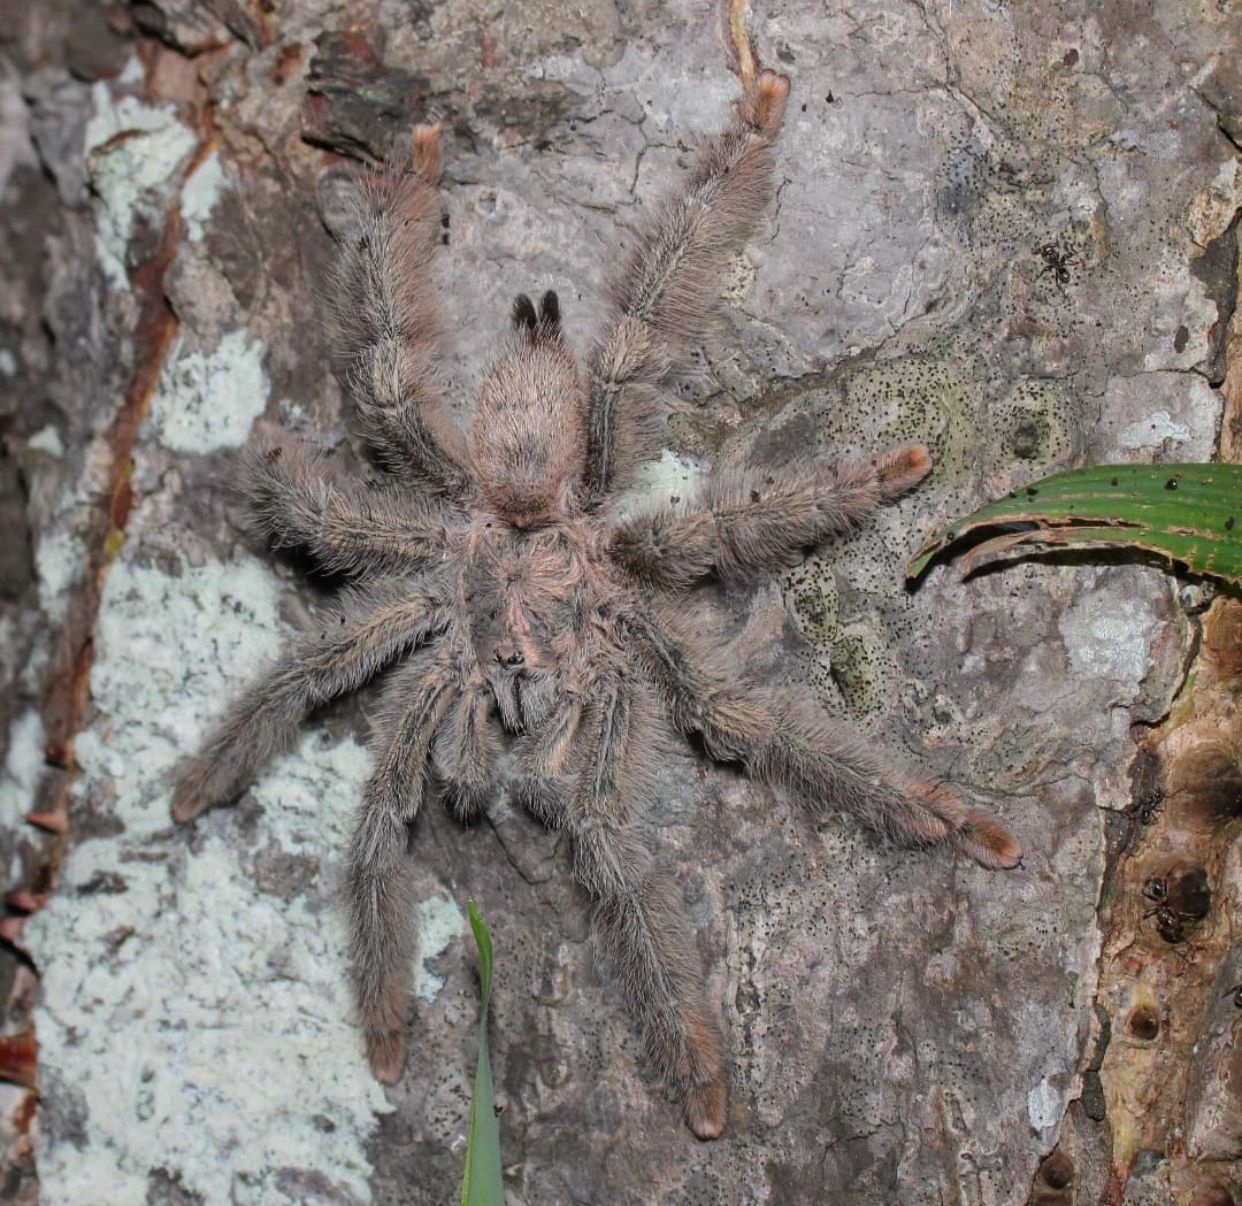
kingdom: Animalia
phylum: Arthropoda
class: Arachnida
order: Araneae
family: Theraphosidae
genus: Psalmopoeus
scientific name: Psalmopoeus pulcher
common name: Tarantula spiders
